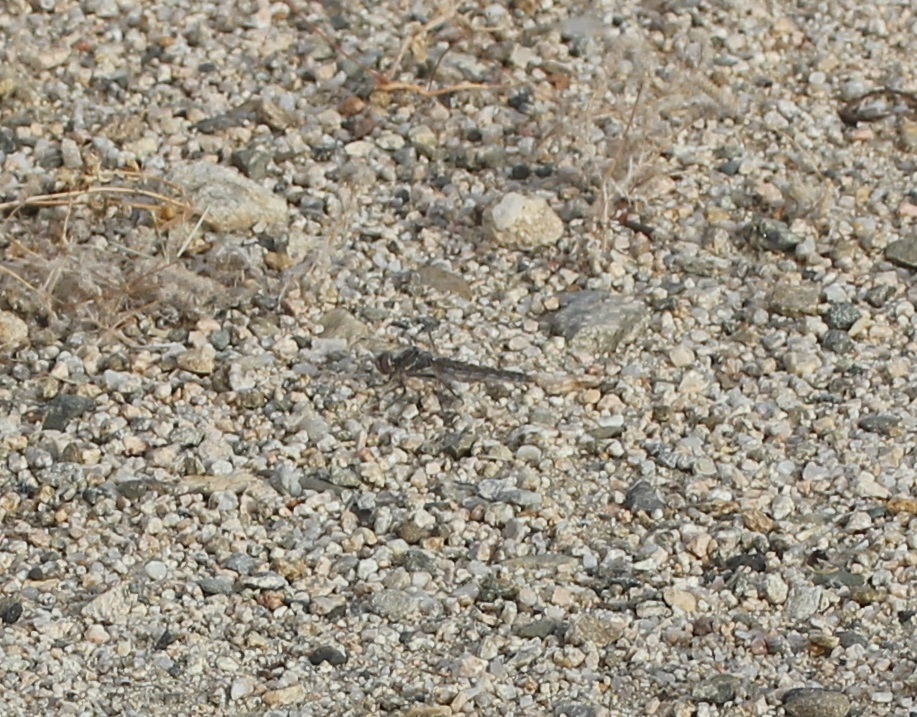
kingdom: Animalia
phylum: Arthropoda
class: Insecta
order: Odonata
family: Libellulidae
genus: Sympetrum
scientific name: Sympetrum corruptum
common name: Variegated meadowhawk
